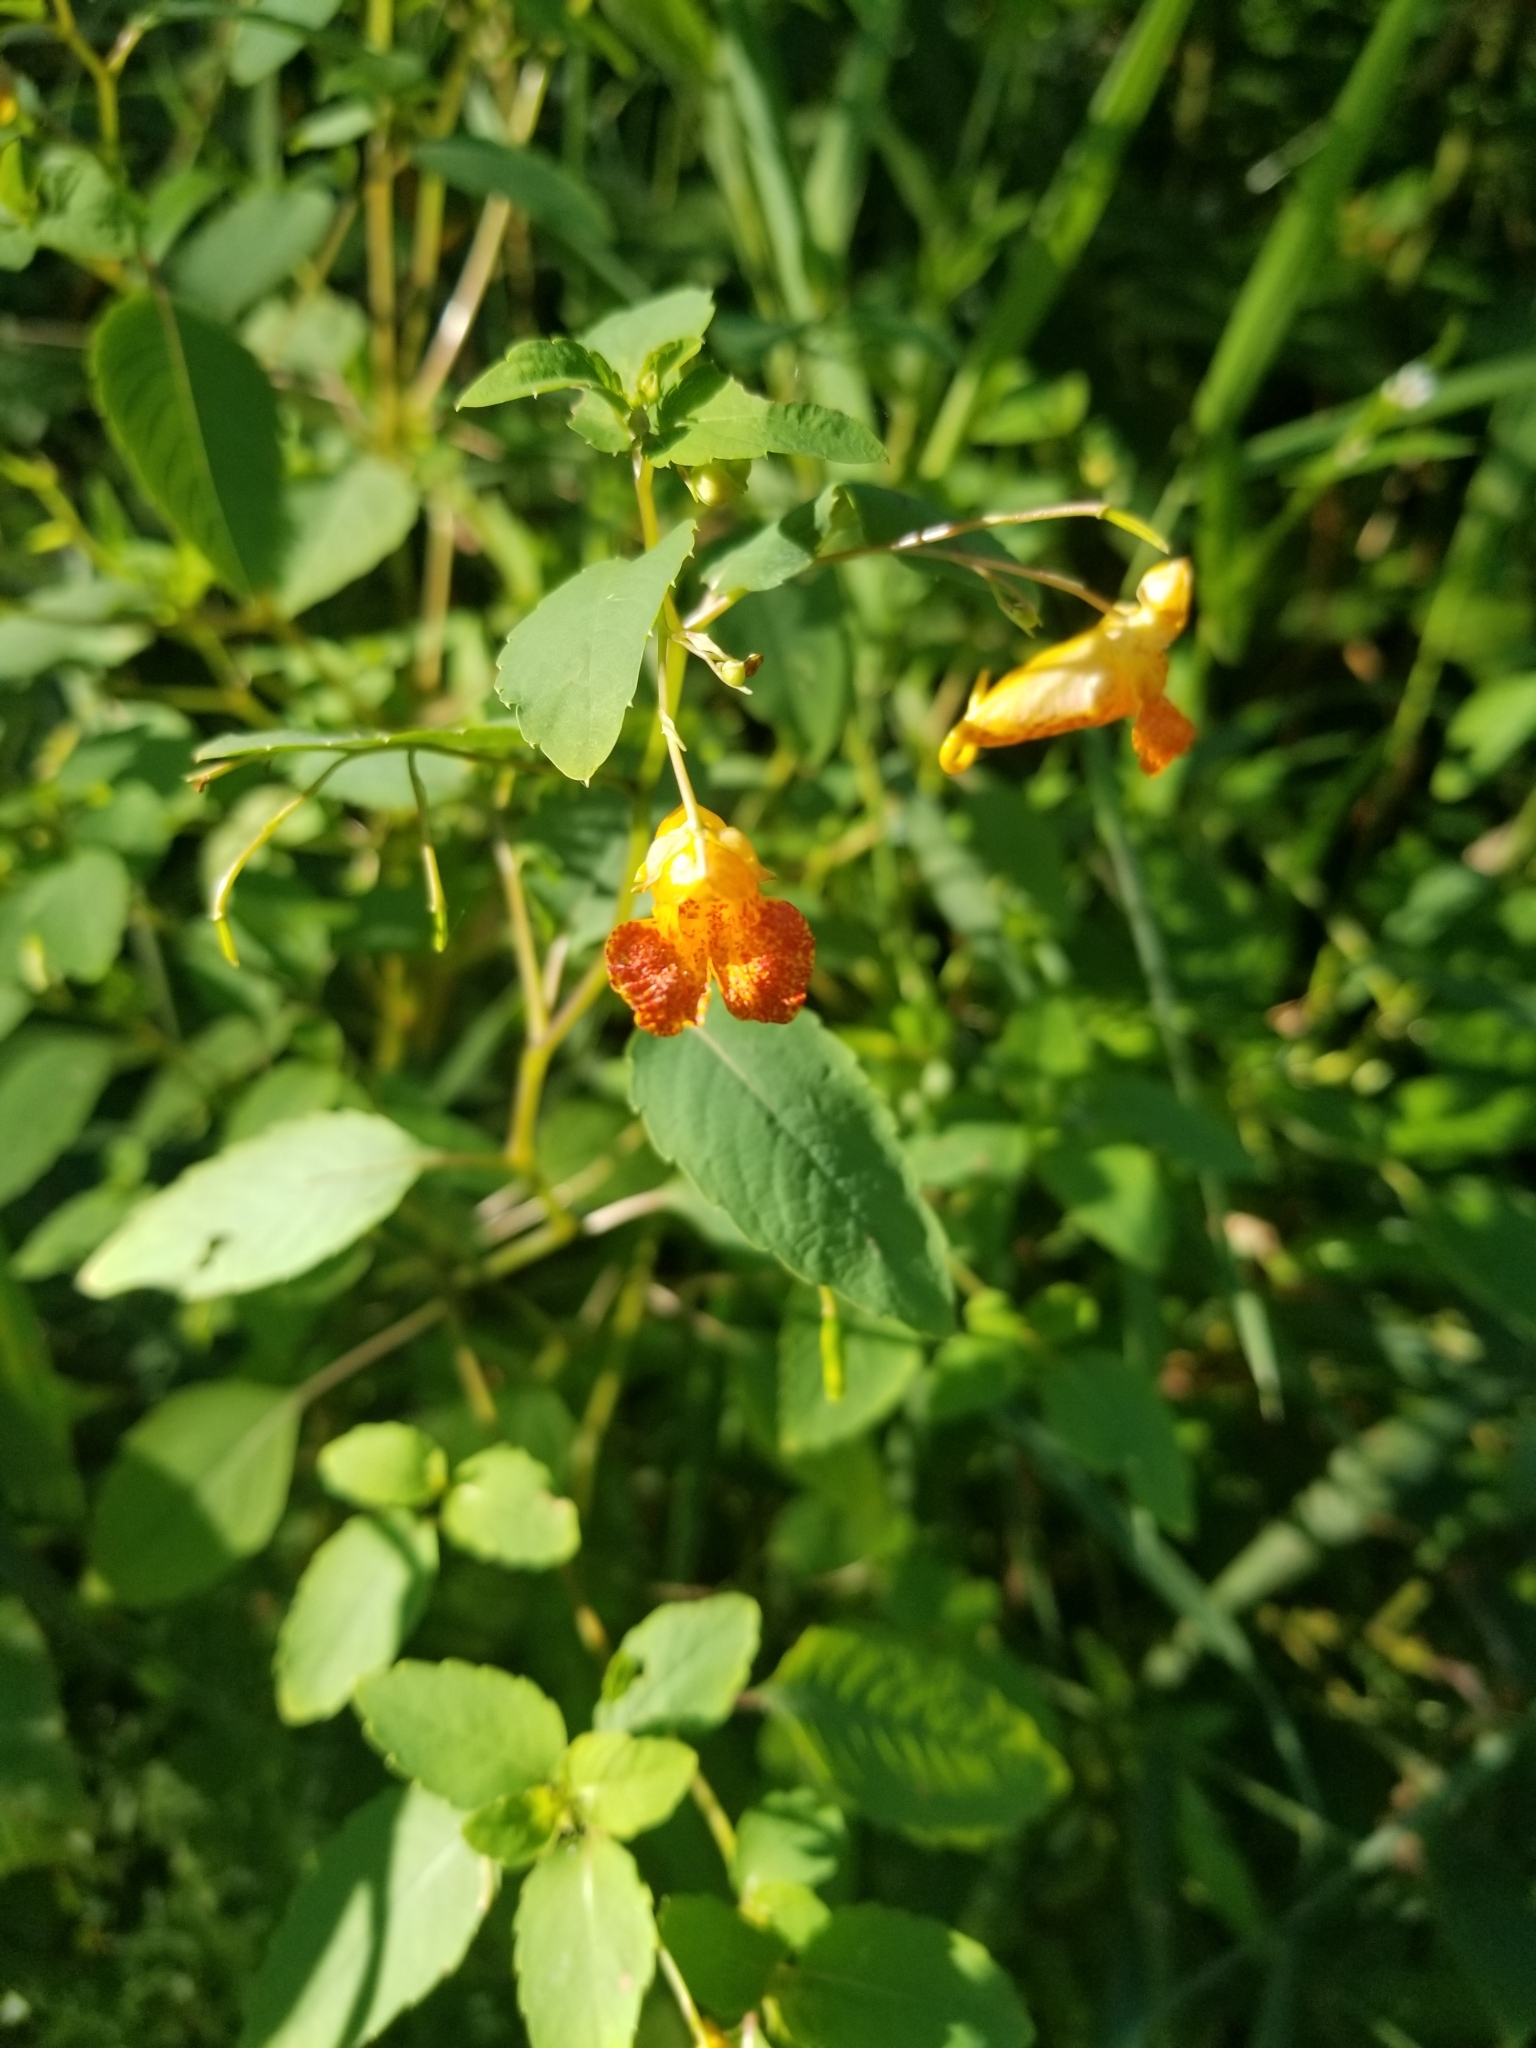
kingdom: Plantae
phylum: Tracheophyta
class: Magnoliopsida
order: Ericales
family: Balsaminaceae
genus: Impatiens
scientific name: Impatiens capensis
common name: Orange balsam
